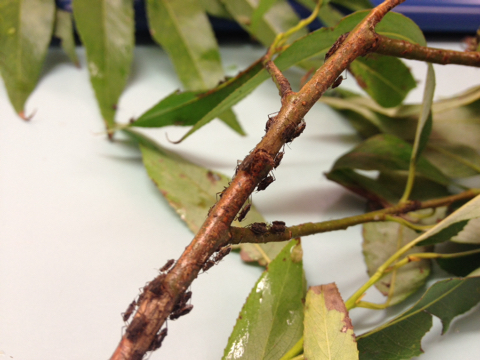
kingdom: Animalia
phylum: Arthropoda
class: Insecta
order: Hemiptera
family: Aphididae
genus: Tuberolachnus
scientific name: Tuberolachnus salignus
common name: Giant willow aphid
